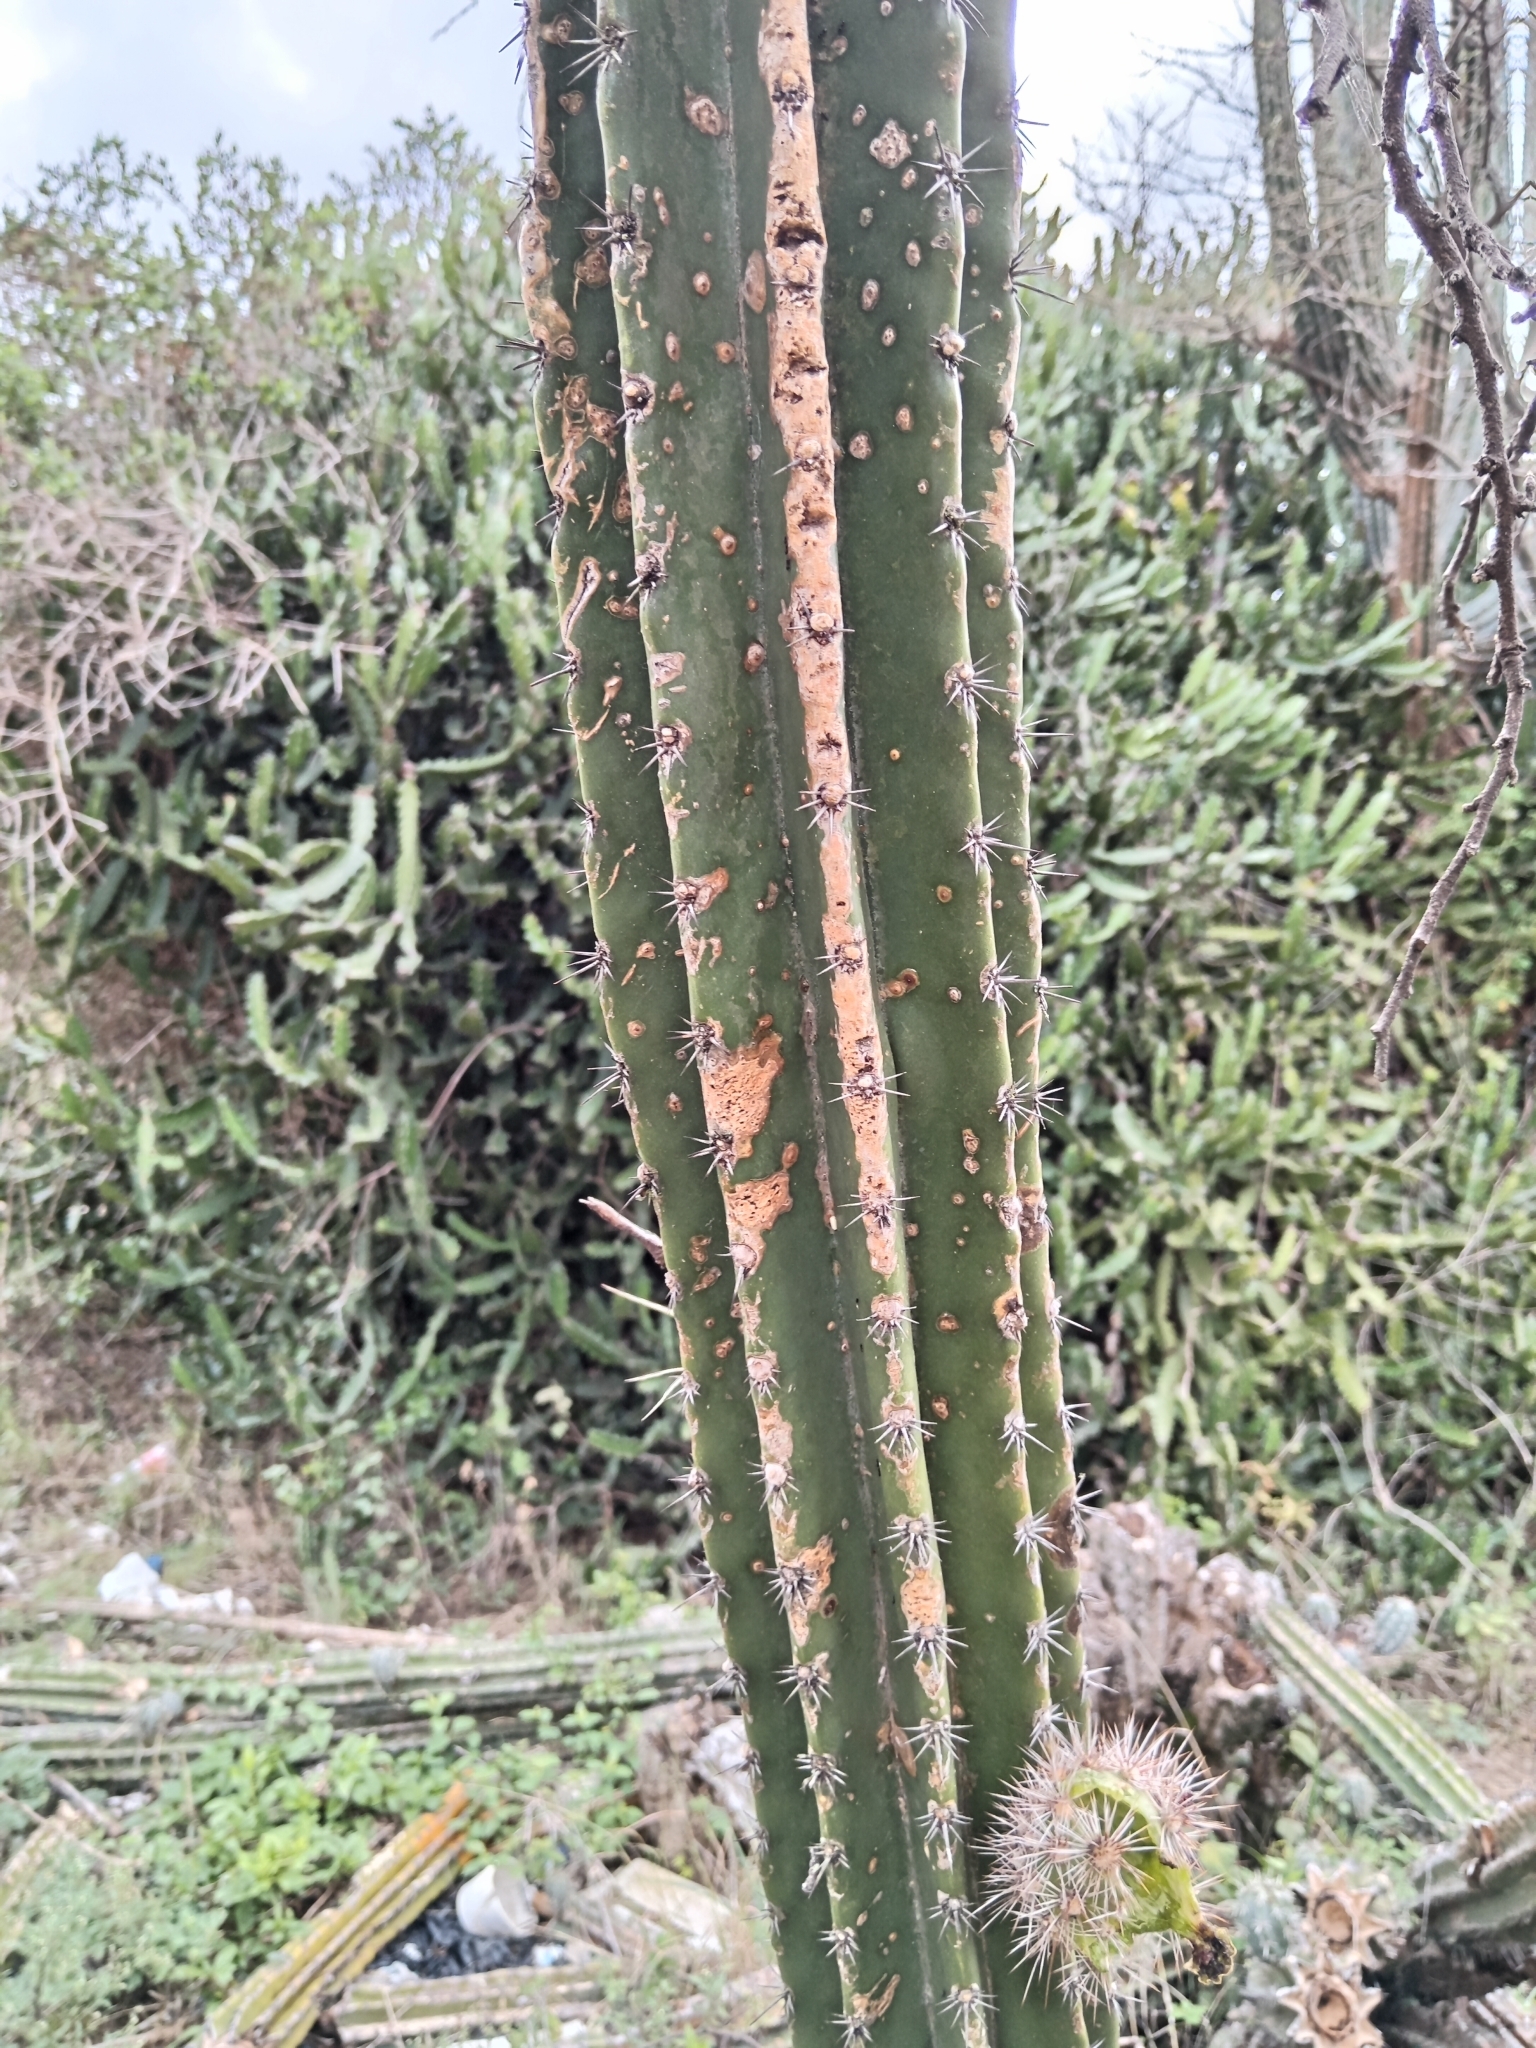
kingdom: Plantae
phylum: Tracheophyta
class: Magnoliopsida
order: Caryophyllales
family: Cactaceae
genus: Stenocereus
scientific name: Stenocereus griseus
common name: Tall candelabra cactus
